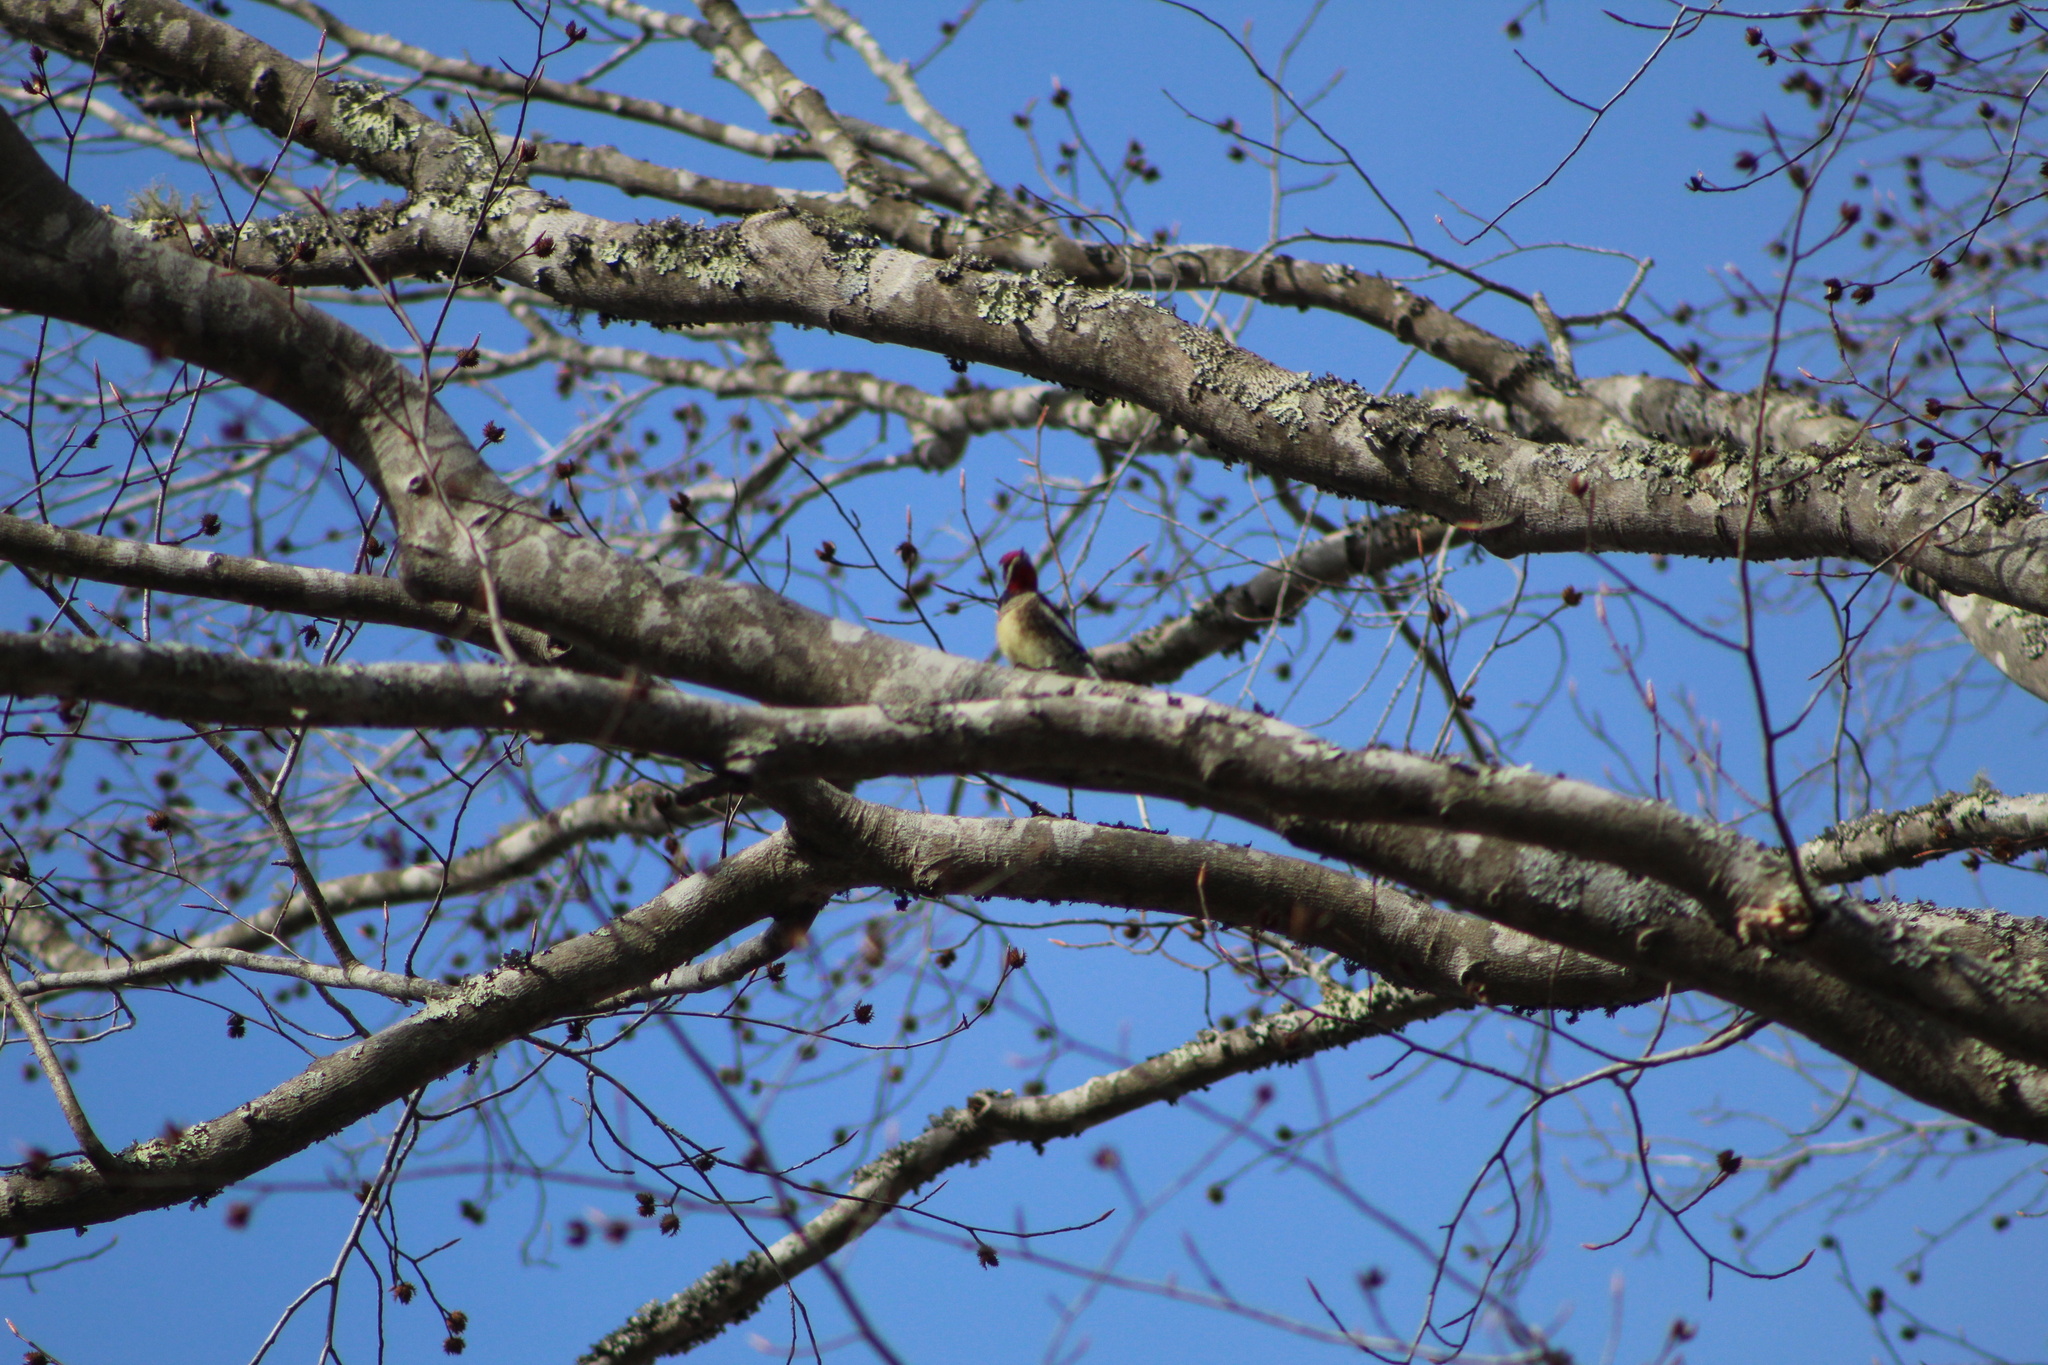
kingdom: Animalia
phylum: Chordata
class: Aves
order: Piciformes
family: Picidae
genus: Sphyrapicus
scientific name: Sphyrapicus varius
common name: Yellow-bellied sapsucker
